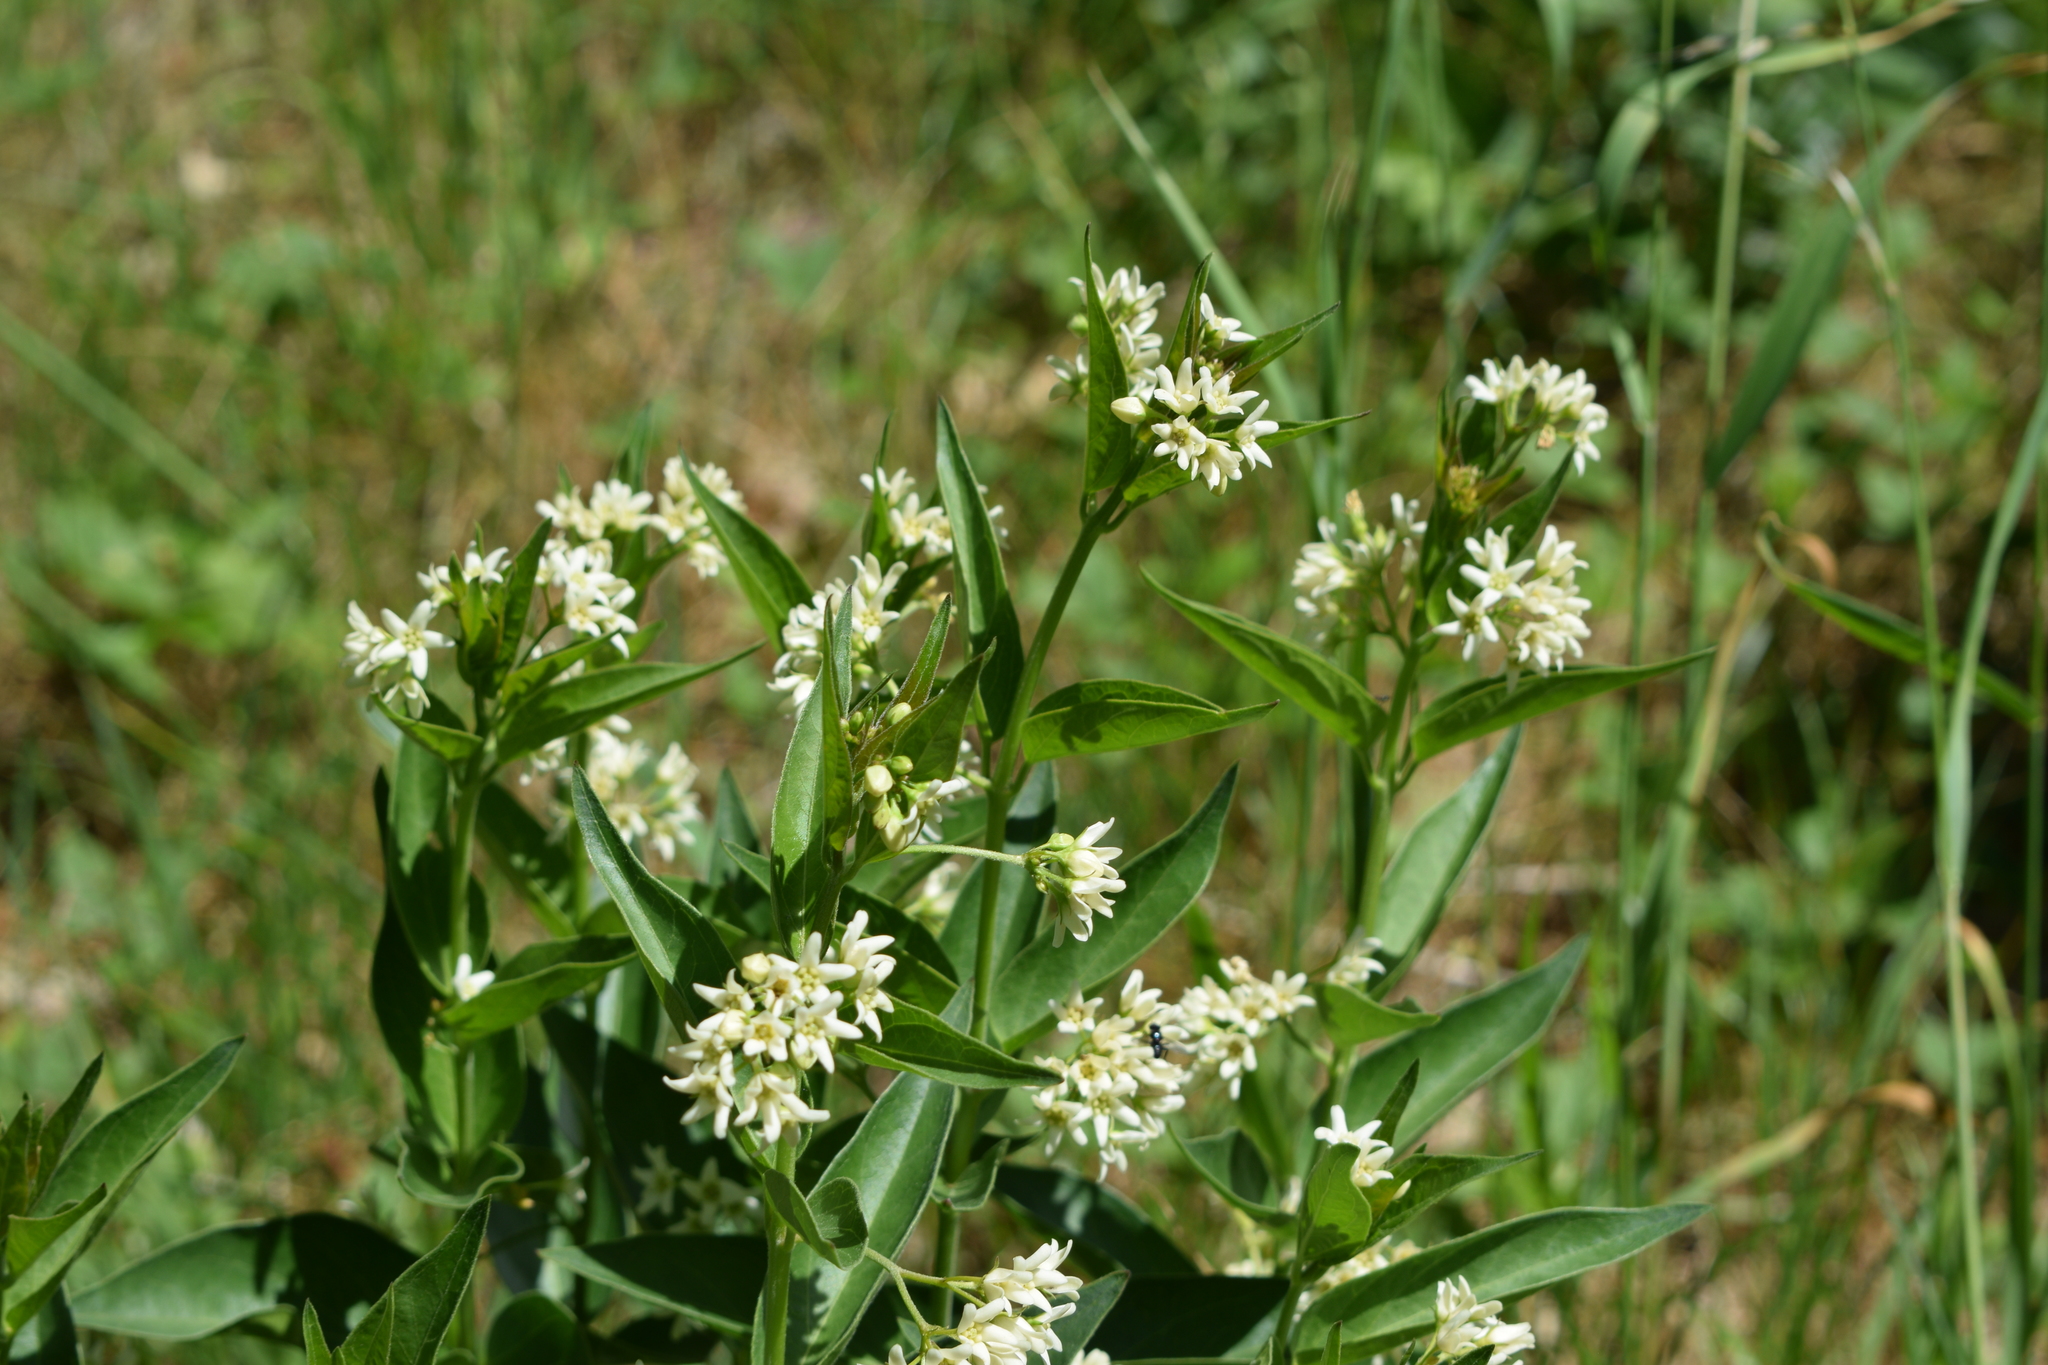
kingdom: Plantae
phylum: Tracheophyta
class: Magnoliopsida
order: Gentianales
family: Apocynaceae
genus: Vincetoxicum
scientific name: Vincetoxicum hirundinaria
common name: White swallowwort
